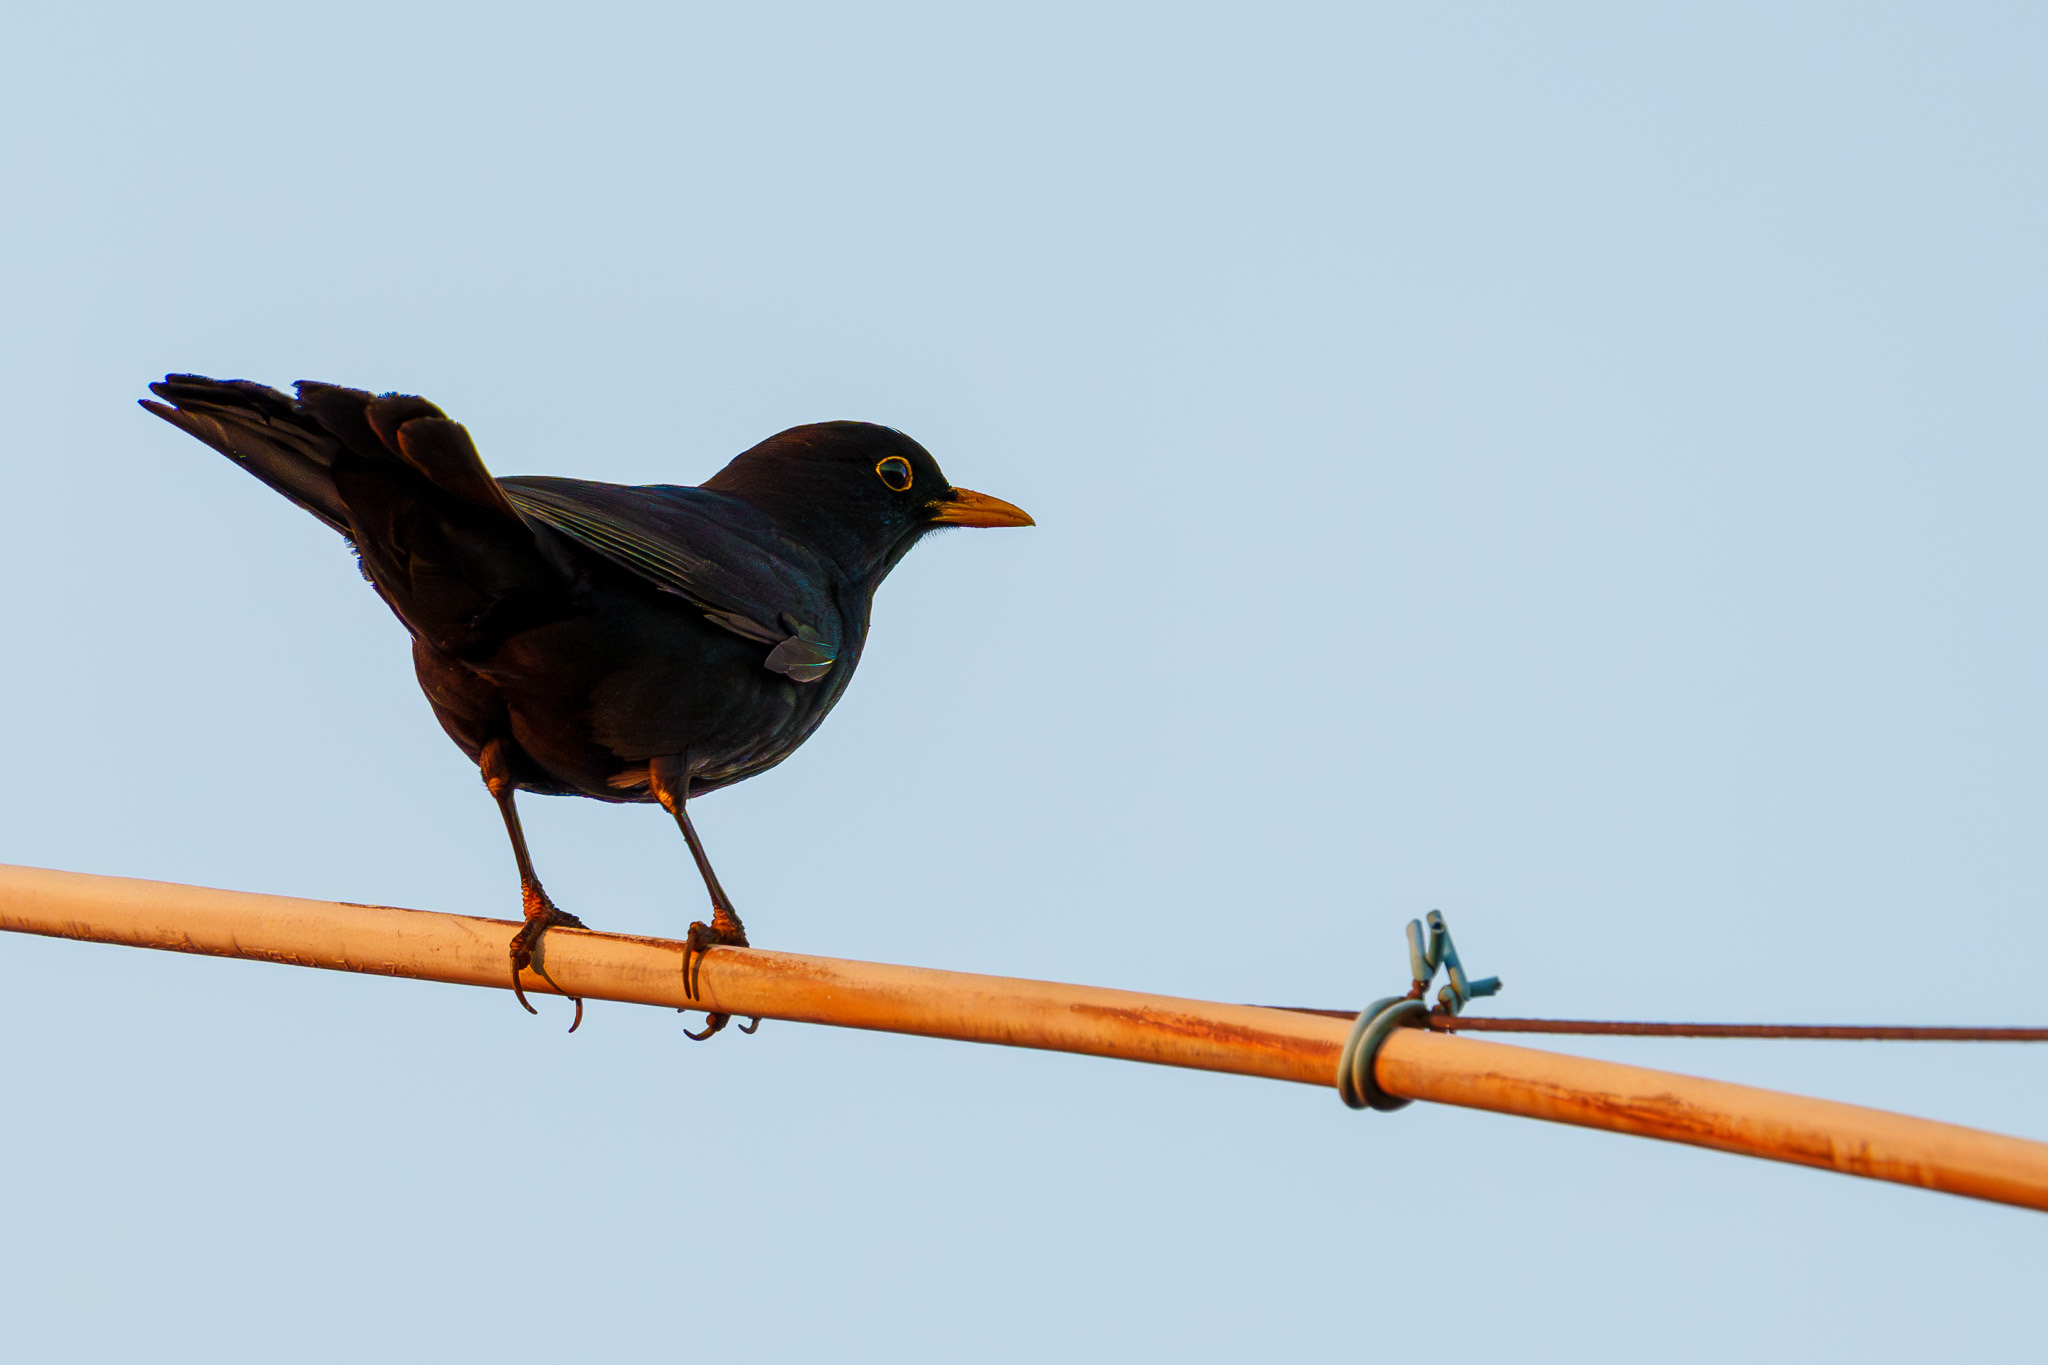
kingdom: Animalia
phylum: Chordata
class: Aves
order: Passeriformes
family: Turdidae
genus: Turdus
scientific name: Turdus merula
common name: Common blackbird
